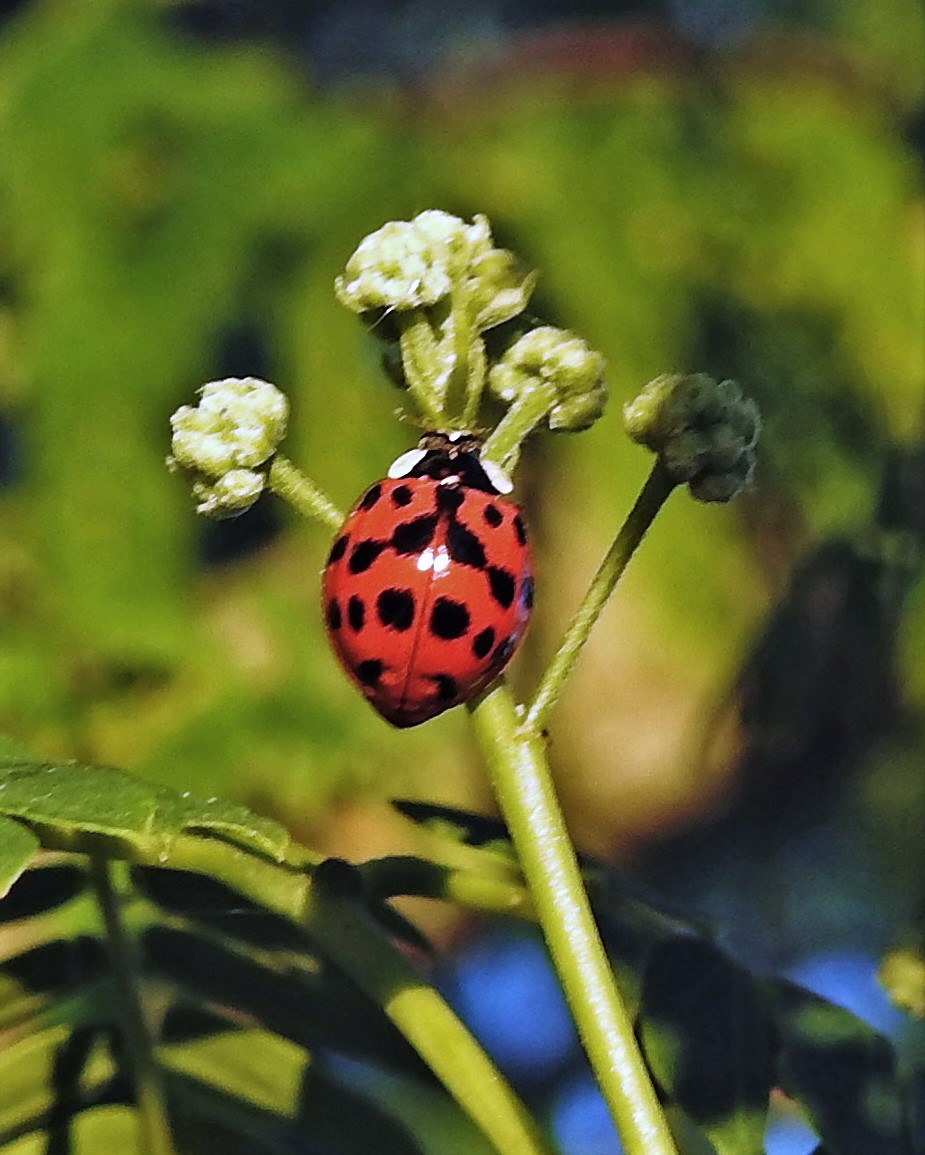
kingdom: Animalia
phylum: Arthropoda
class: Insecta
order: Coleoptera
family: Coccinellidae
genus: Harmonia
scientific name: Harmonia axyridis
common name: Harlequin ladybird
